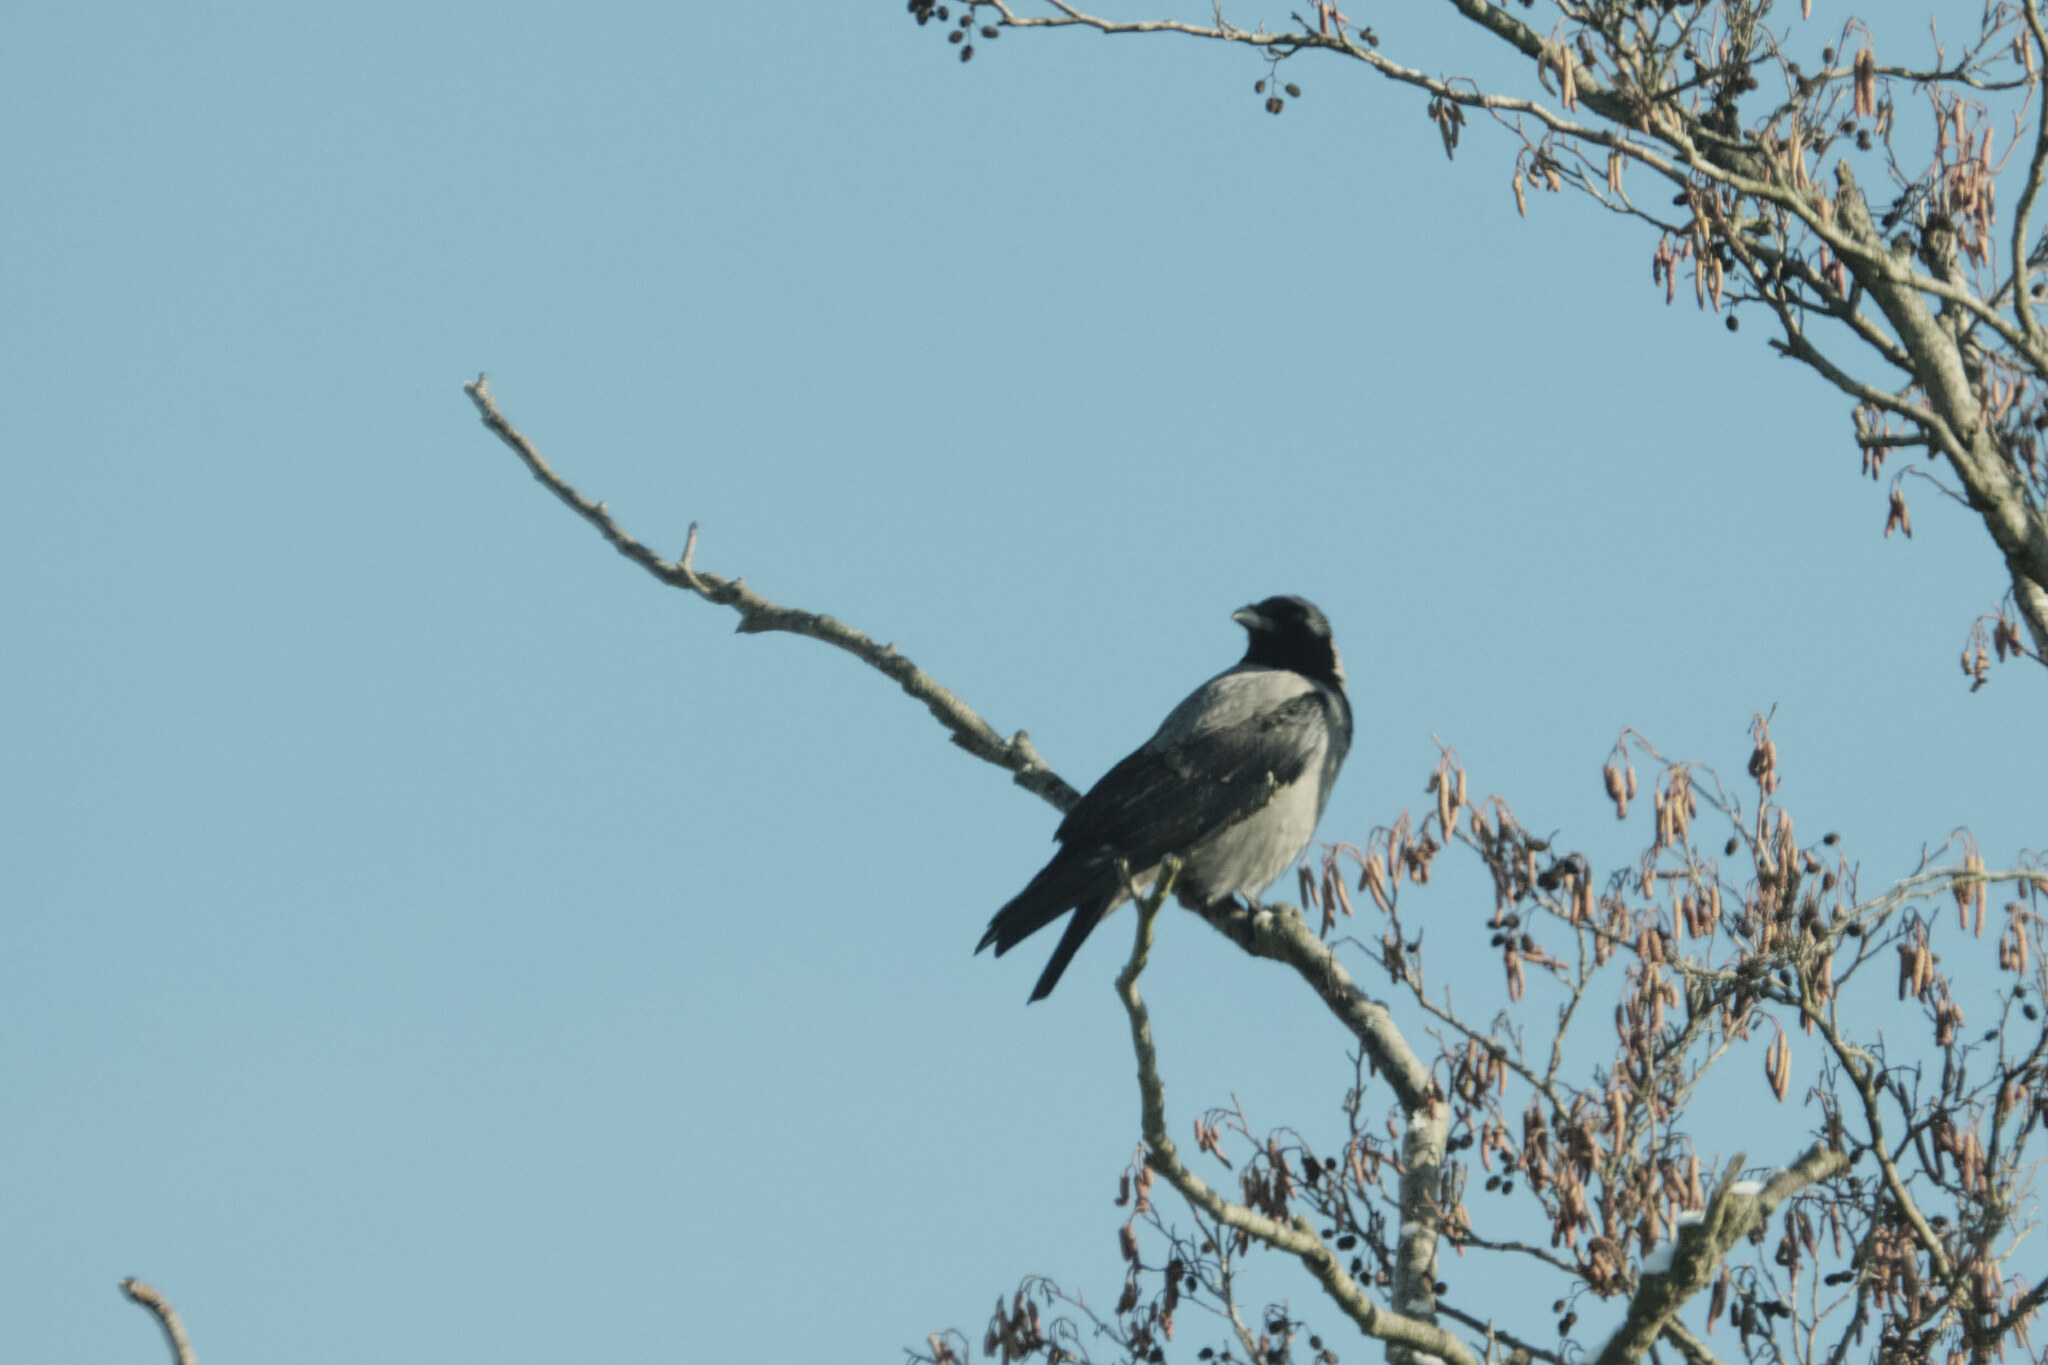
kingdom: Animalia
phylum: Chordata
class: Aves
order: Passeriformes
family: Corvidae
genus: Corvus
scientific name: Corvus cornix
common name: Hooded crow
